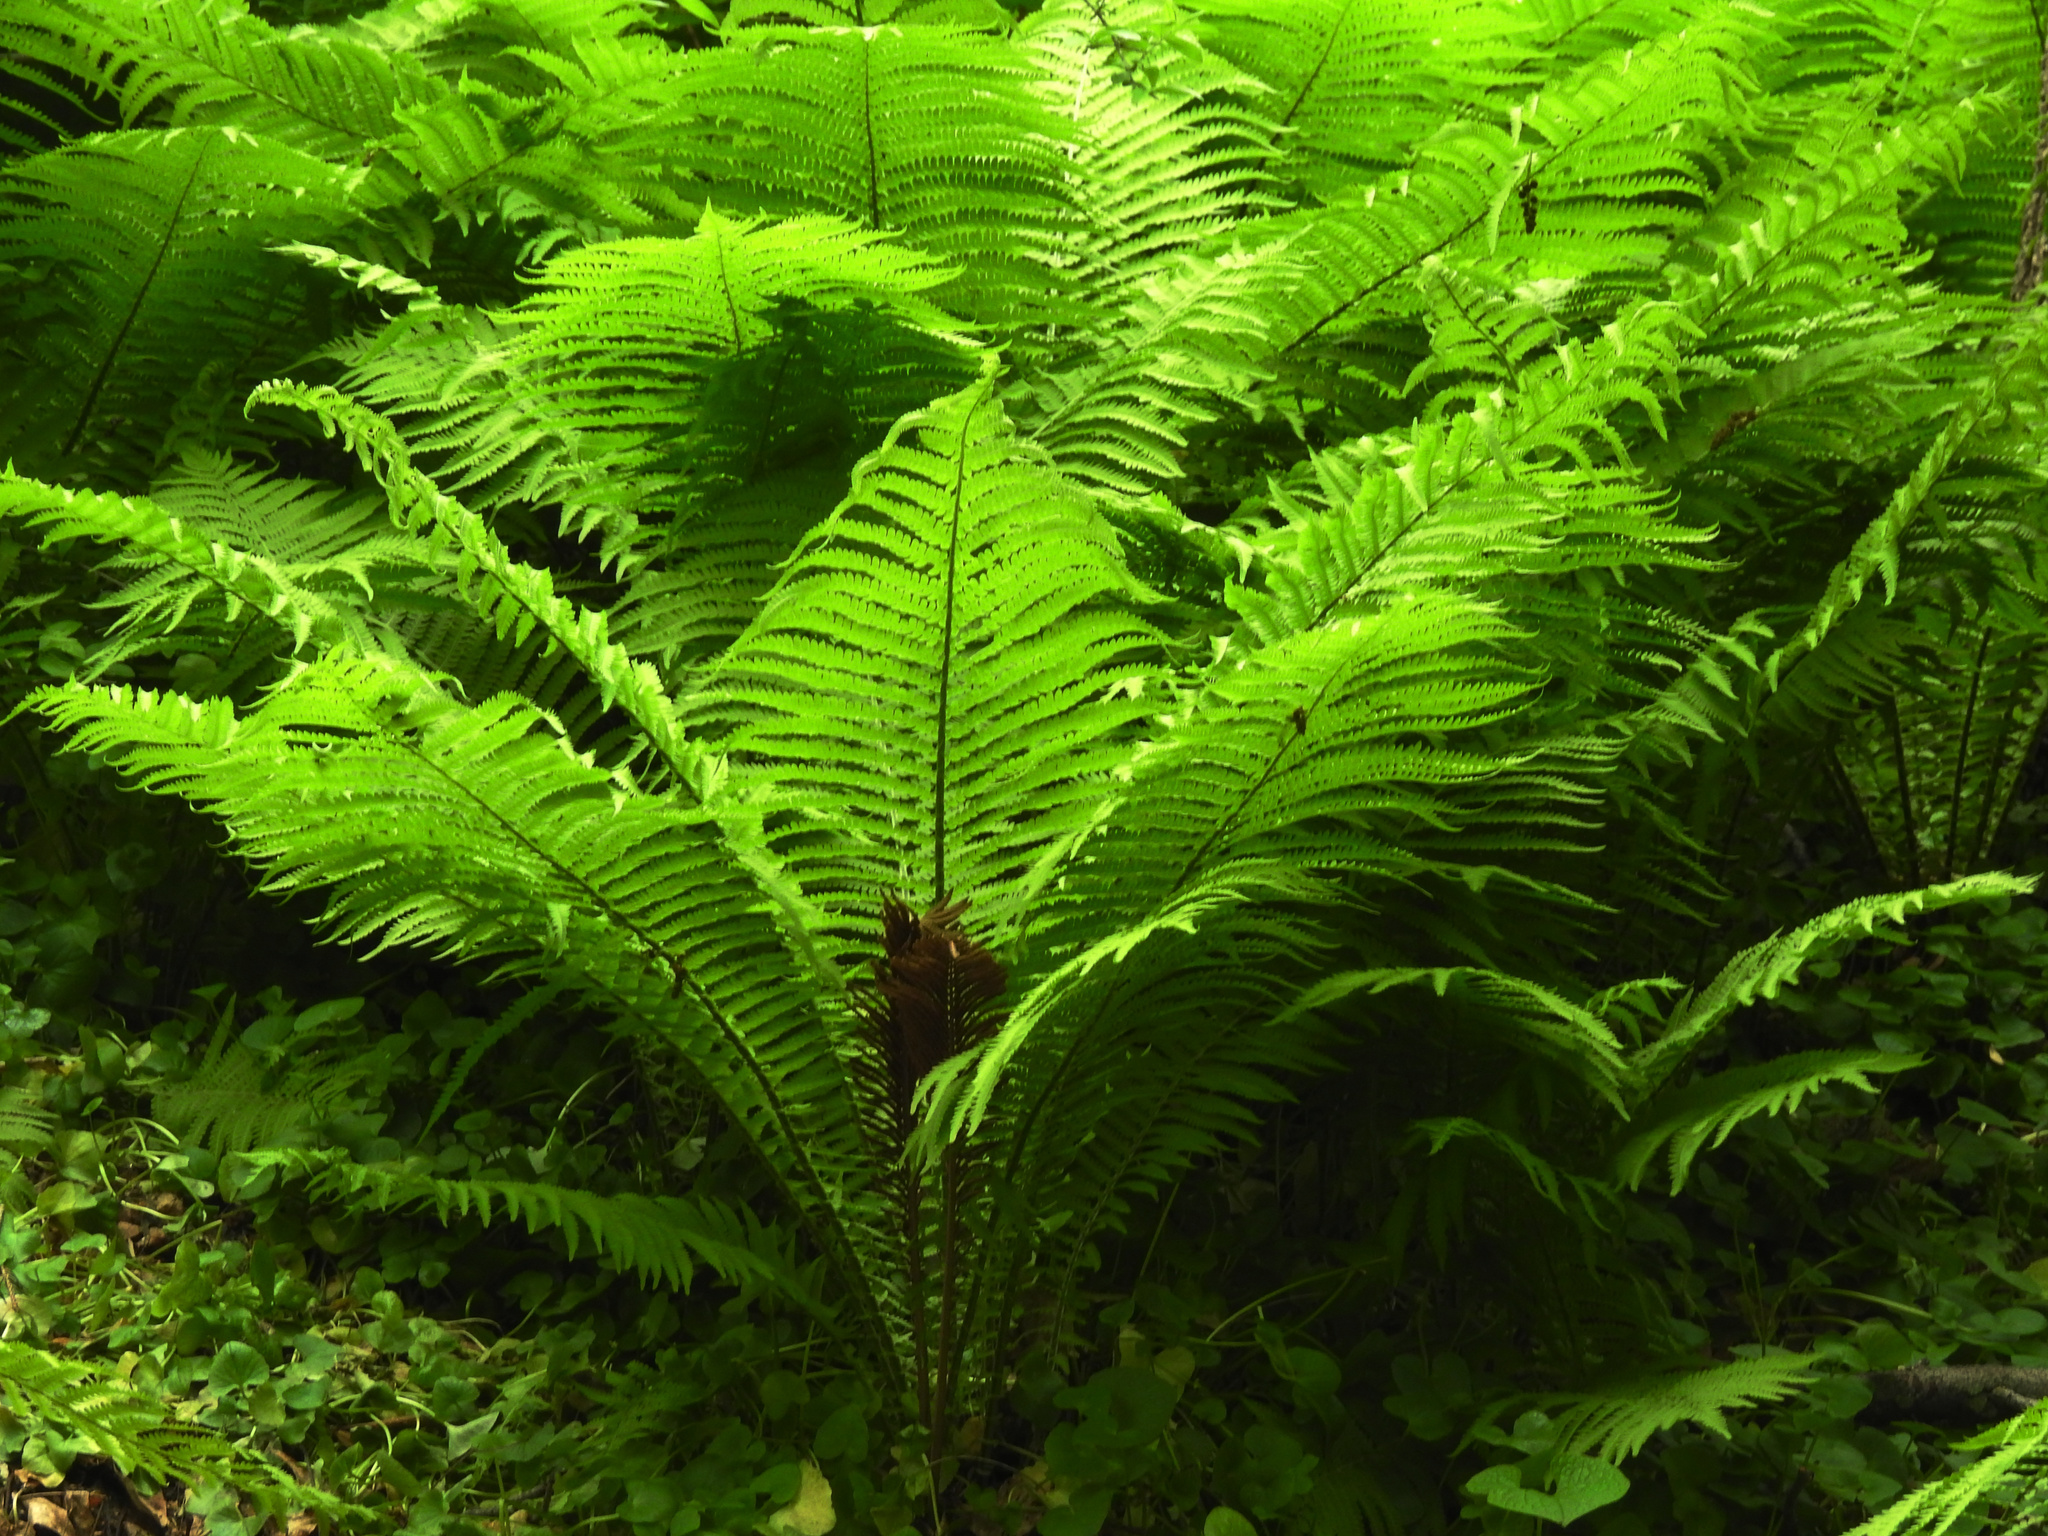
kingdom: Plantae
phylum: Tracheophyta
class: Polypodiopsida
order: Polypodiales
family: Onocleaceae
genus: Matteuccia
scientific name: Matteuccia struthiopteris
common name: Ostrich fern
